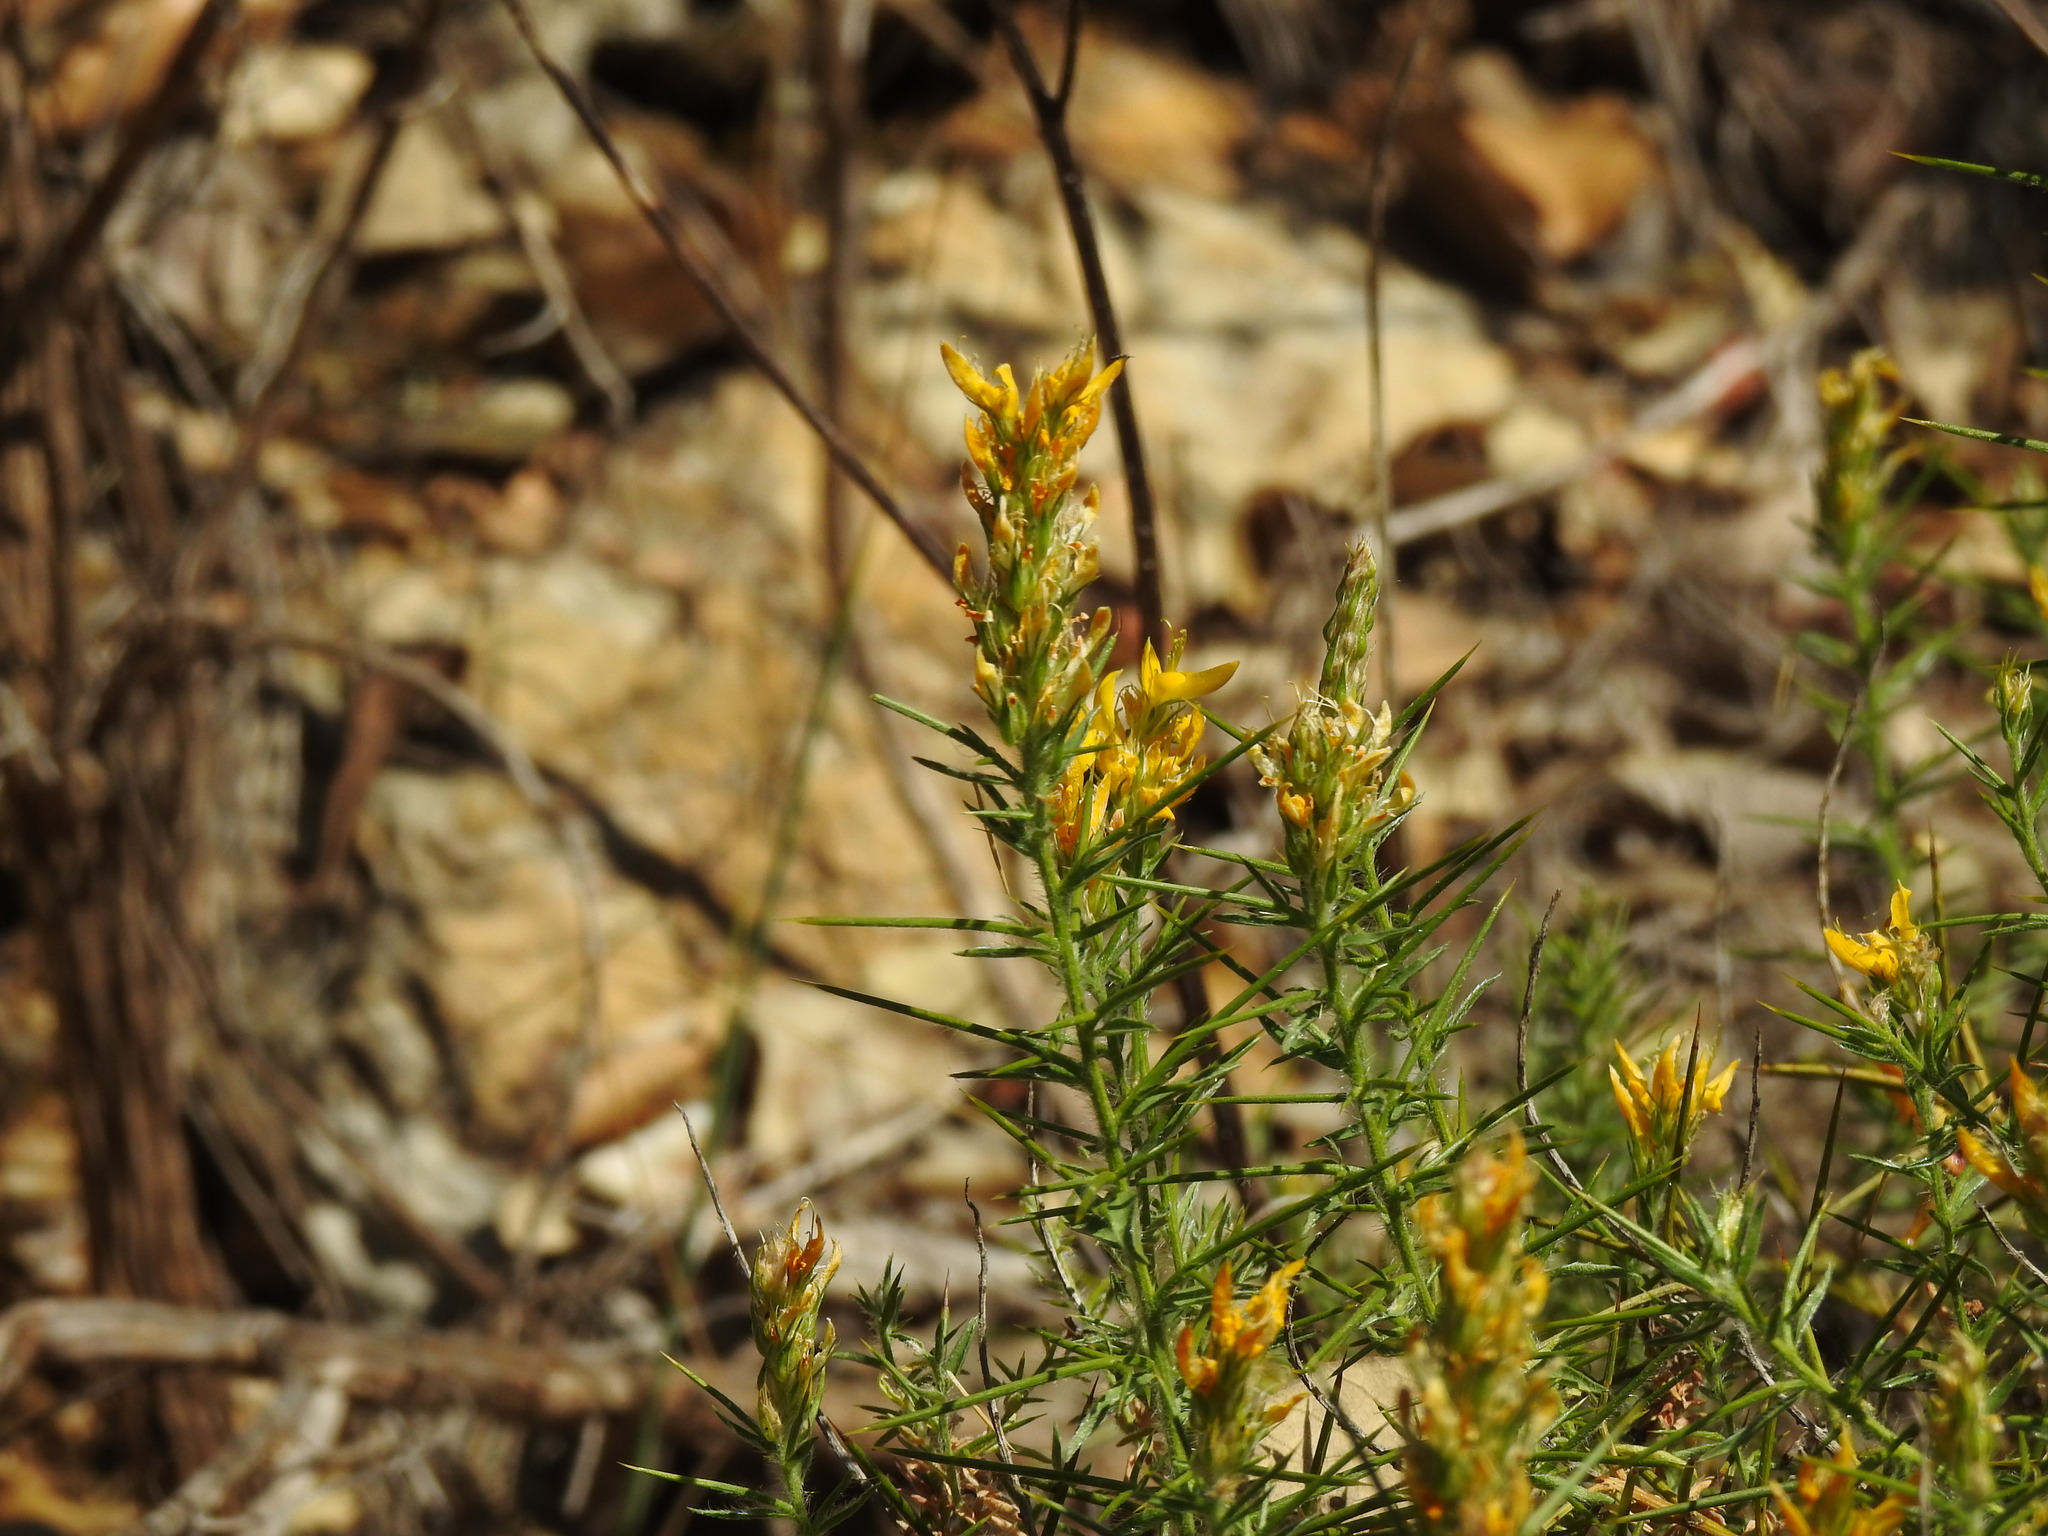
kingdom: Plantae
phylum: Tracheophyta
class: Magnoliopsida
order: Fabales
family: Fabaceae
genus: Genista
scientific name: Genista hirsuta
